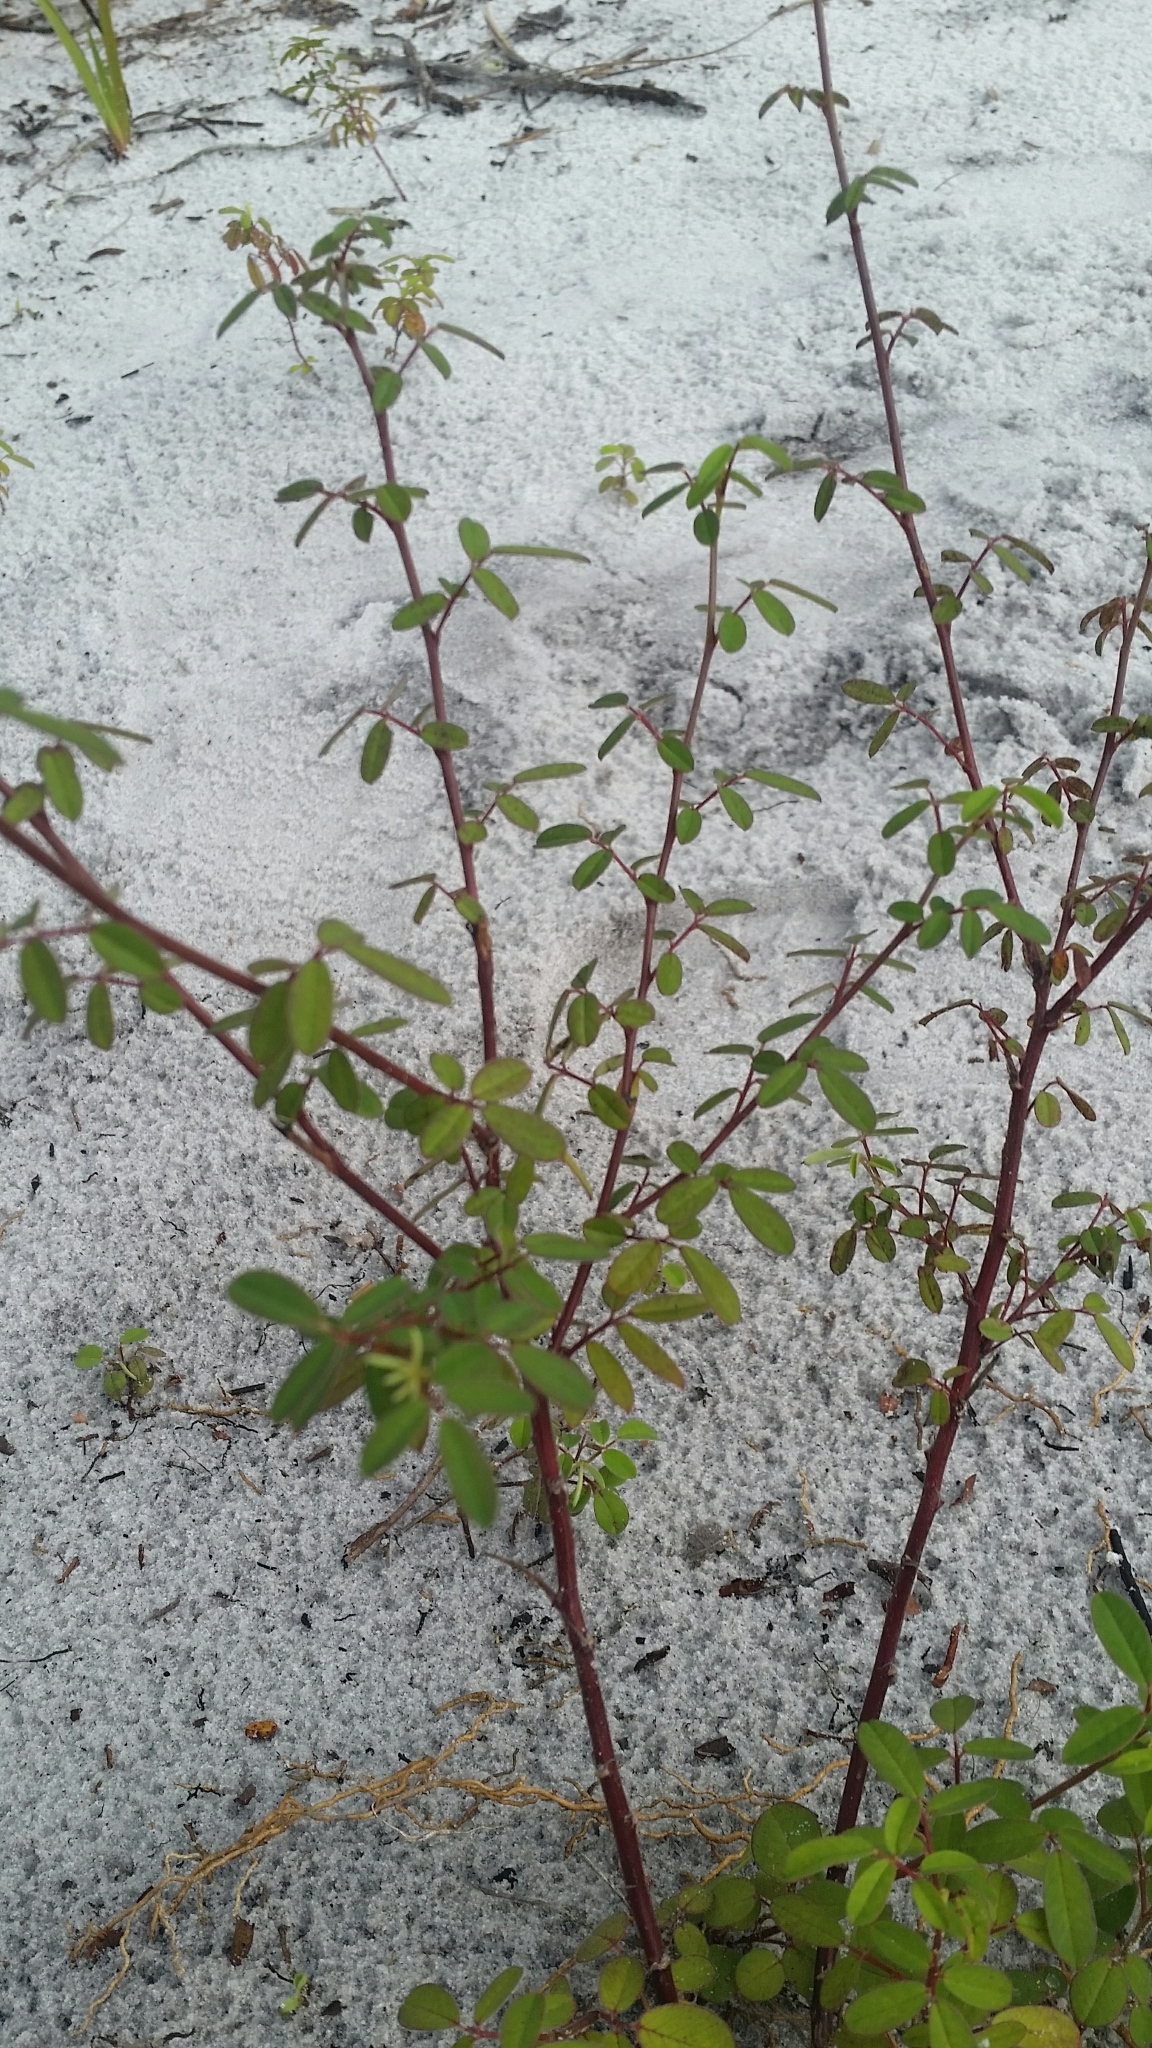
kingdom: Plantae
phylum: Tracheophyta
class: Magnoliopsida
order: Fabales
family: Fabaceae
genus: Chapmannia
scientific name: Chapmannia floridana
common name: Alicia
